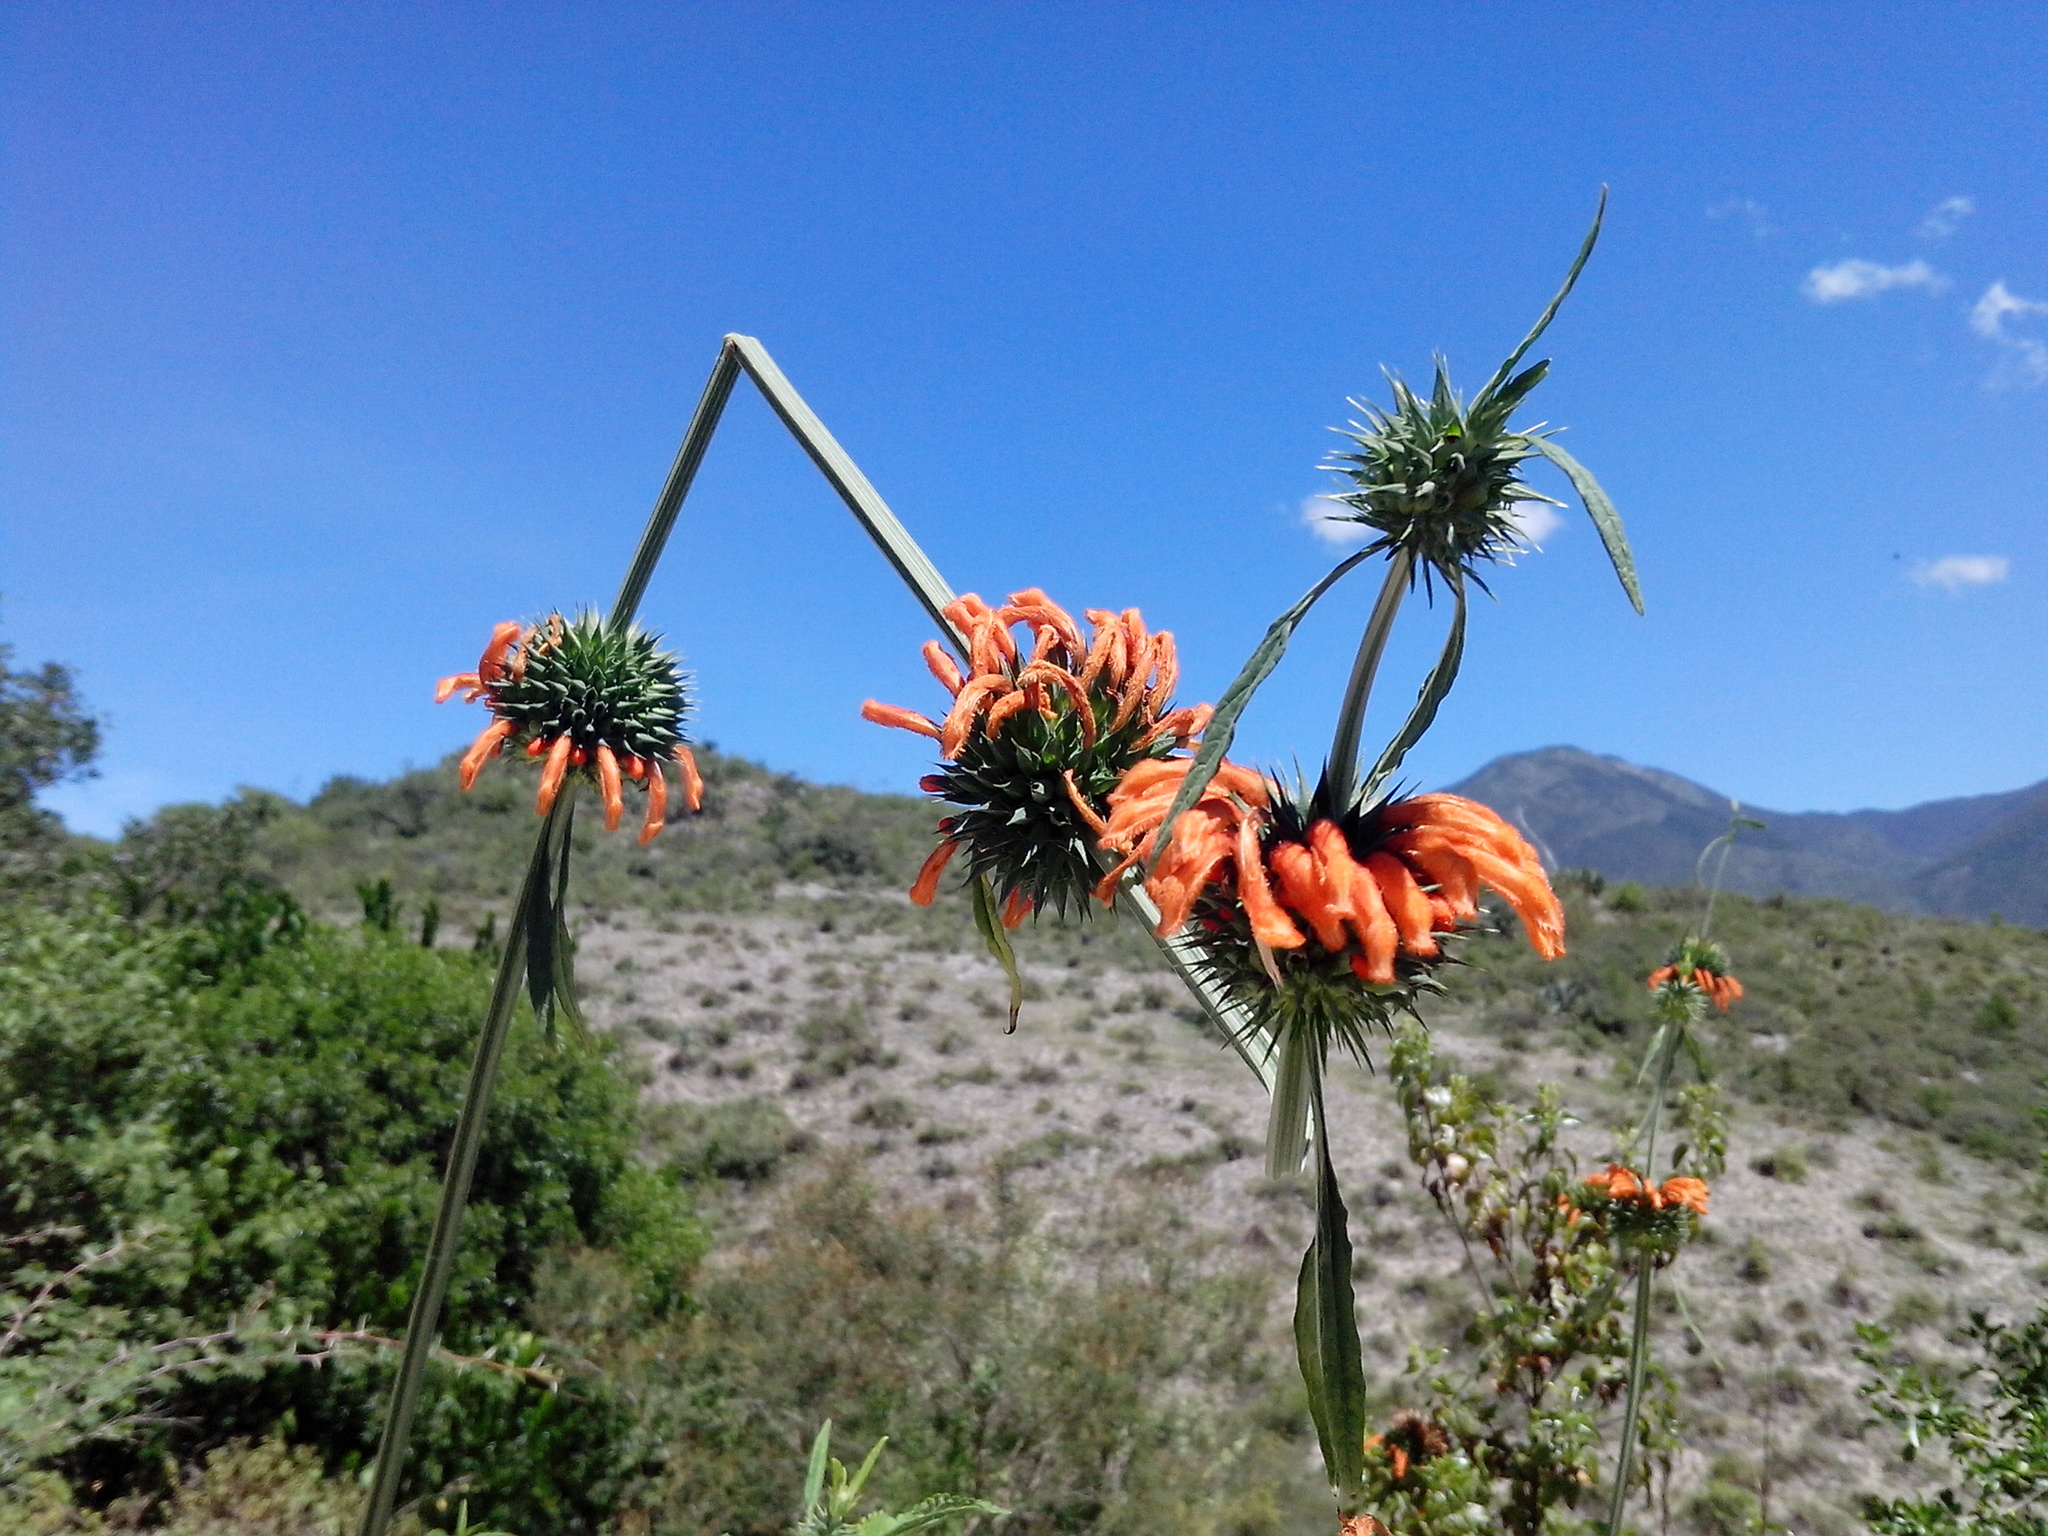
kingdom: Plantae
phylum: Tracheophyta
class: Magnoliopsida
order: Lamiales
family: Lamiaceae
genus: Leonotis
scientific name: Leonotis nepetifolia
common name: Christmas candlestick
